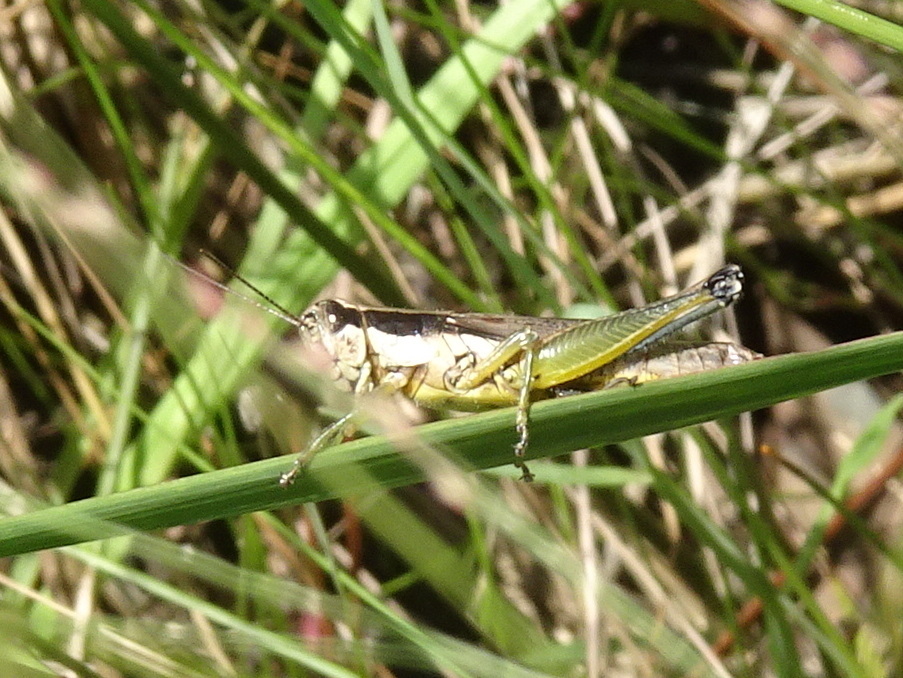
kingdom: Animalia
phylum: Arthropoda
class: Insecta
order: Orthoptera
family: Acrididae
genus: Paroxya
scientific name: Paroxya clavuligera
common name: Olive-green swamp grasshopper
